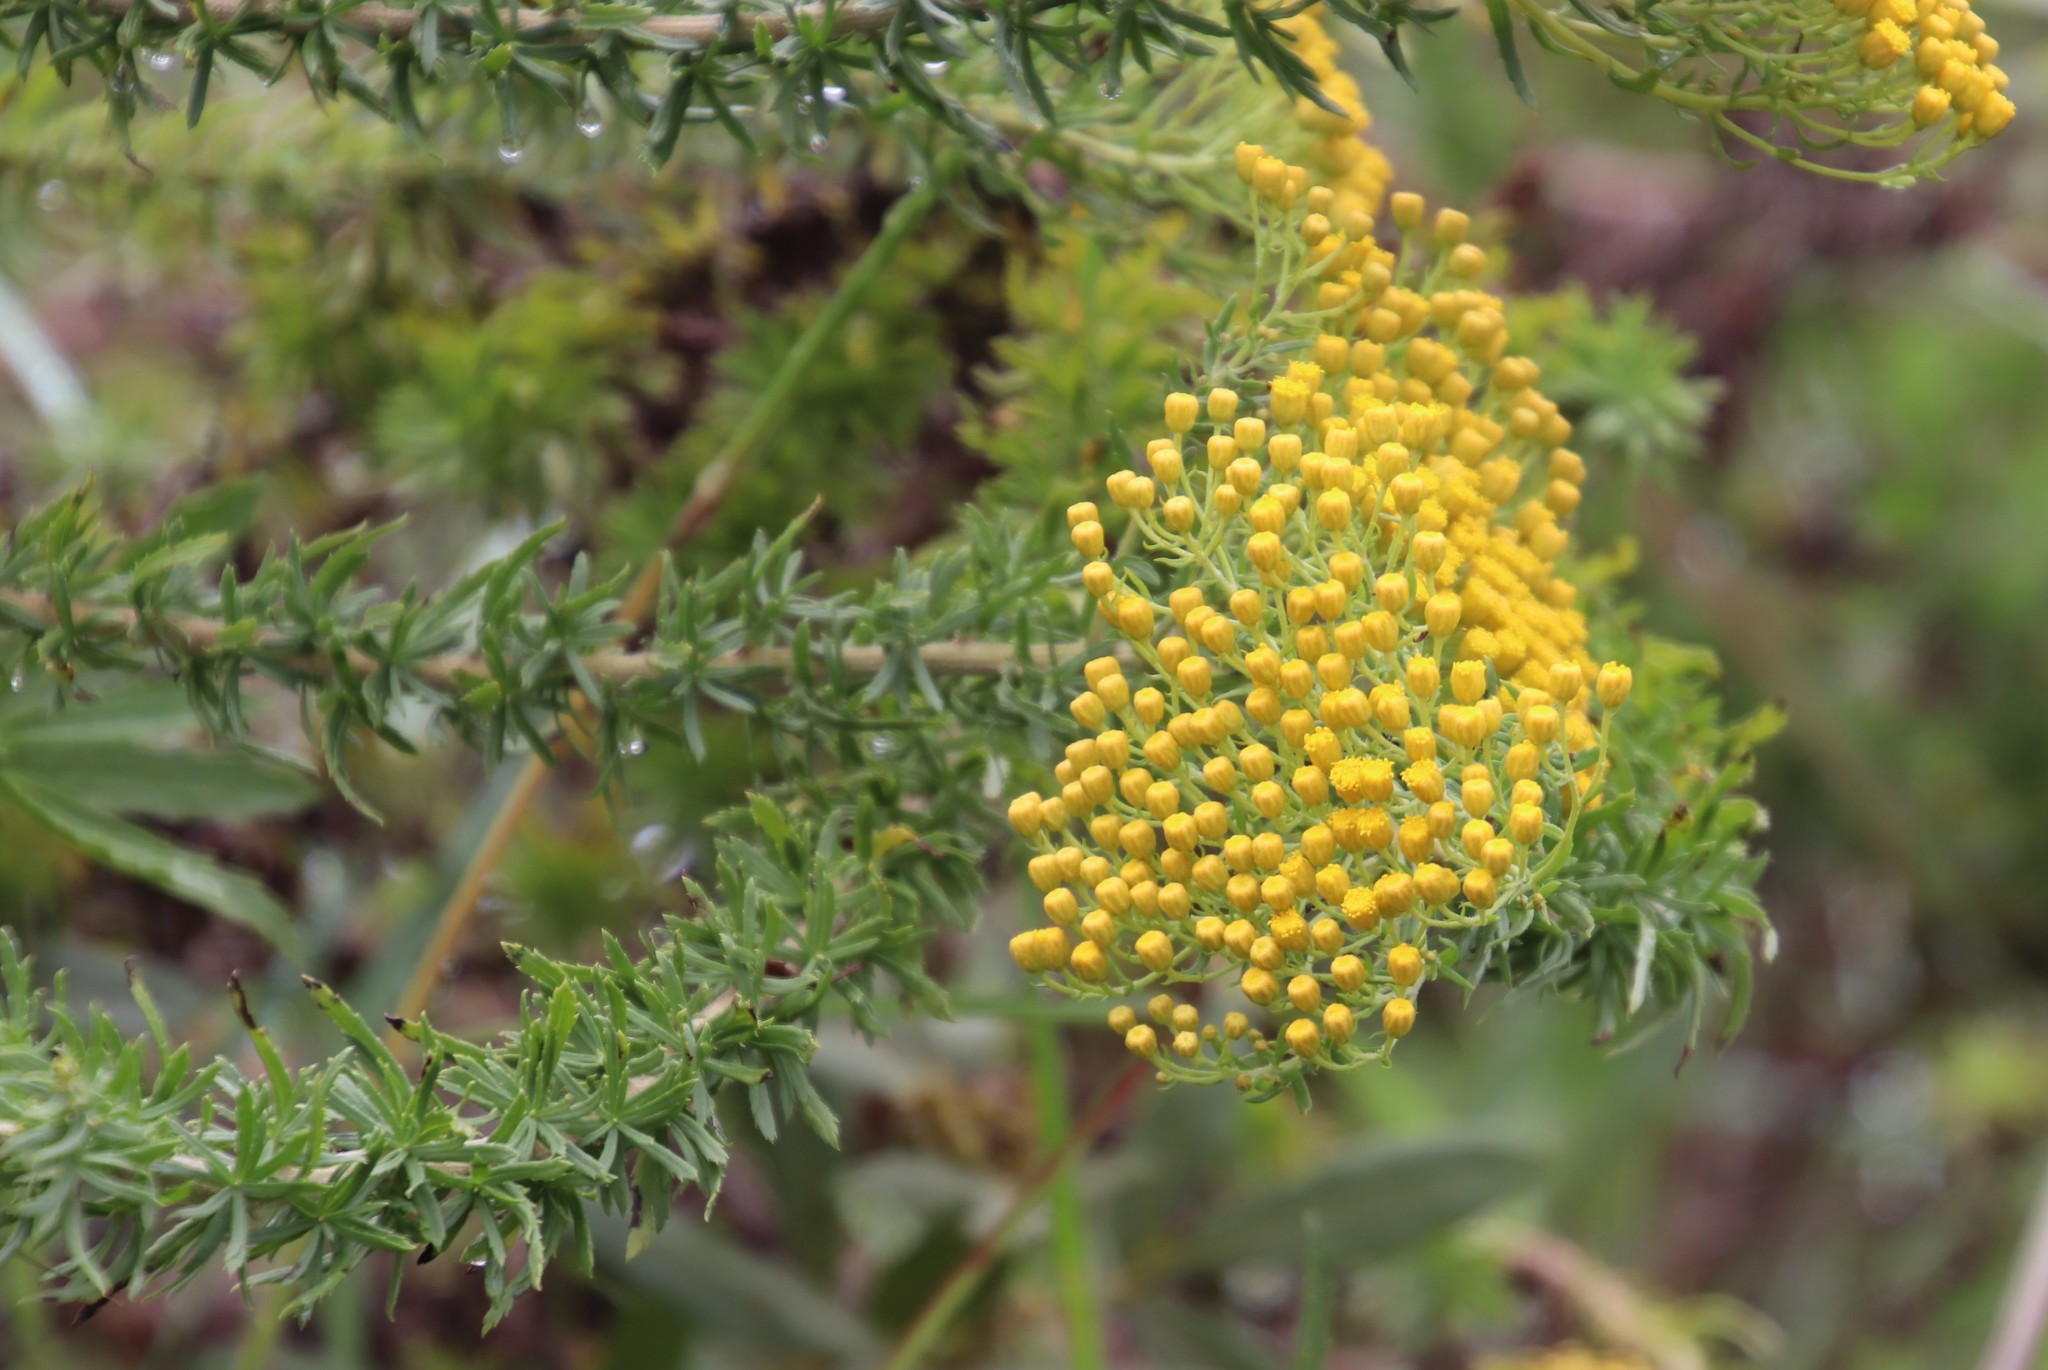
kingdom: Plantae
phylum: Tracheophyta
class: Magnoliopsida
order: Asterales
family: Asteraceae
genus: Inulanthera
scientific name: Inulanthera dregeana
